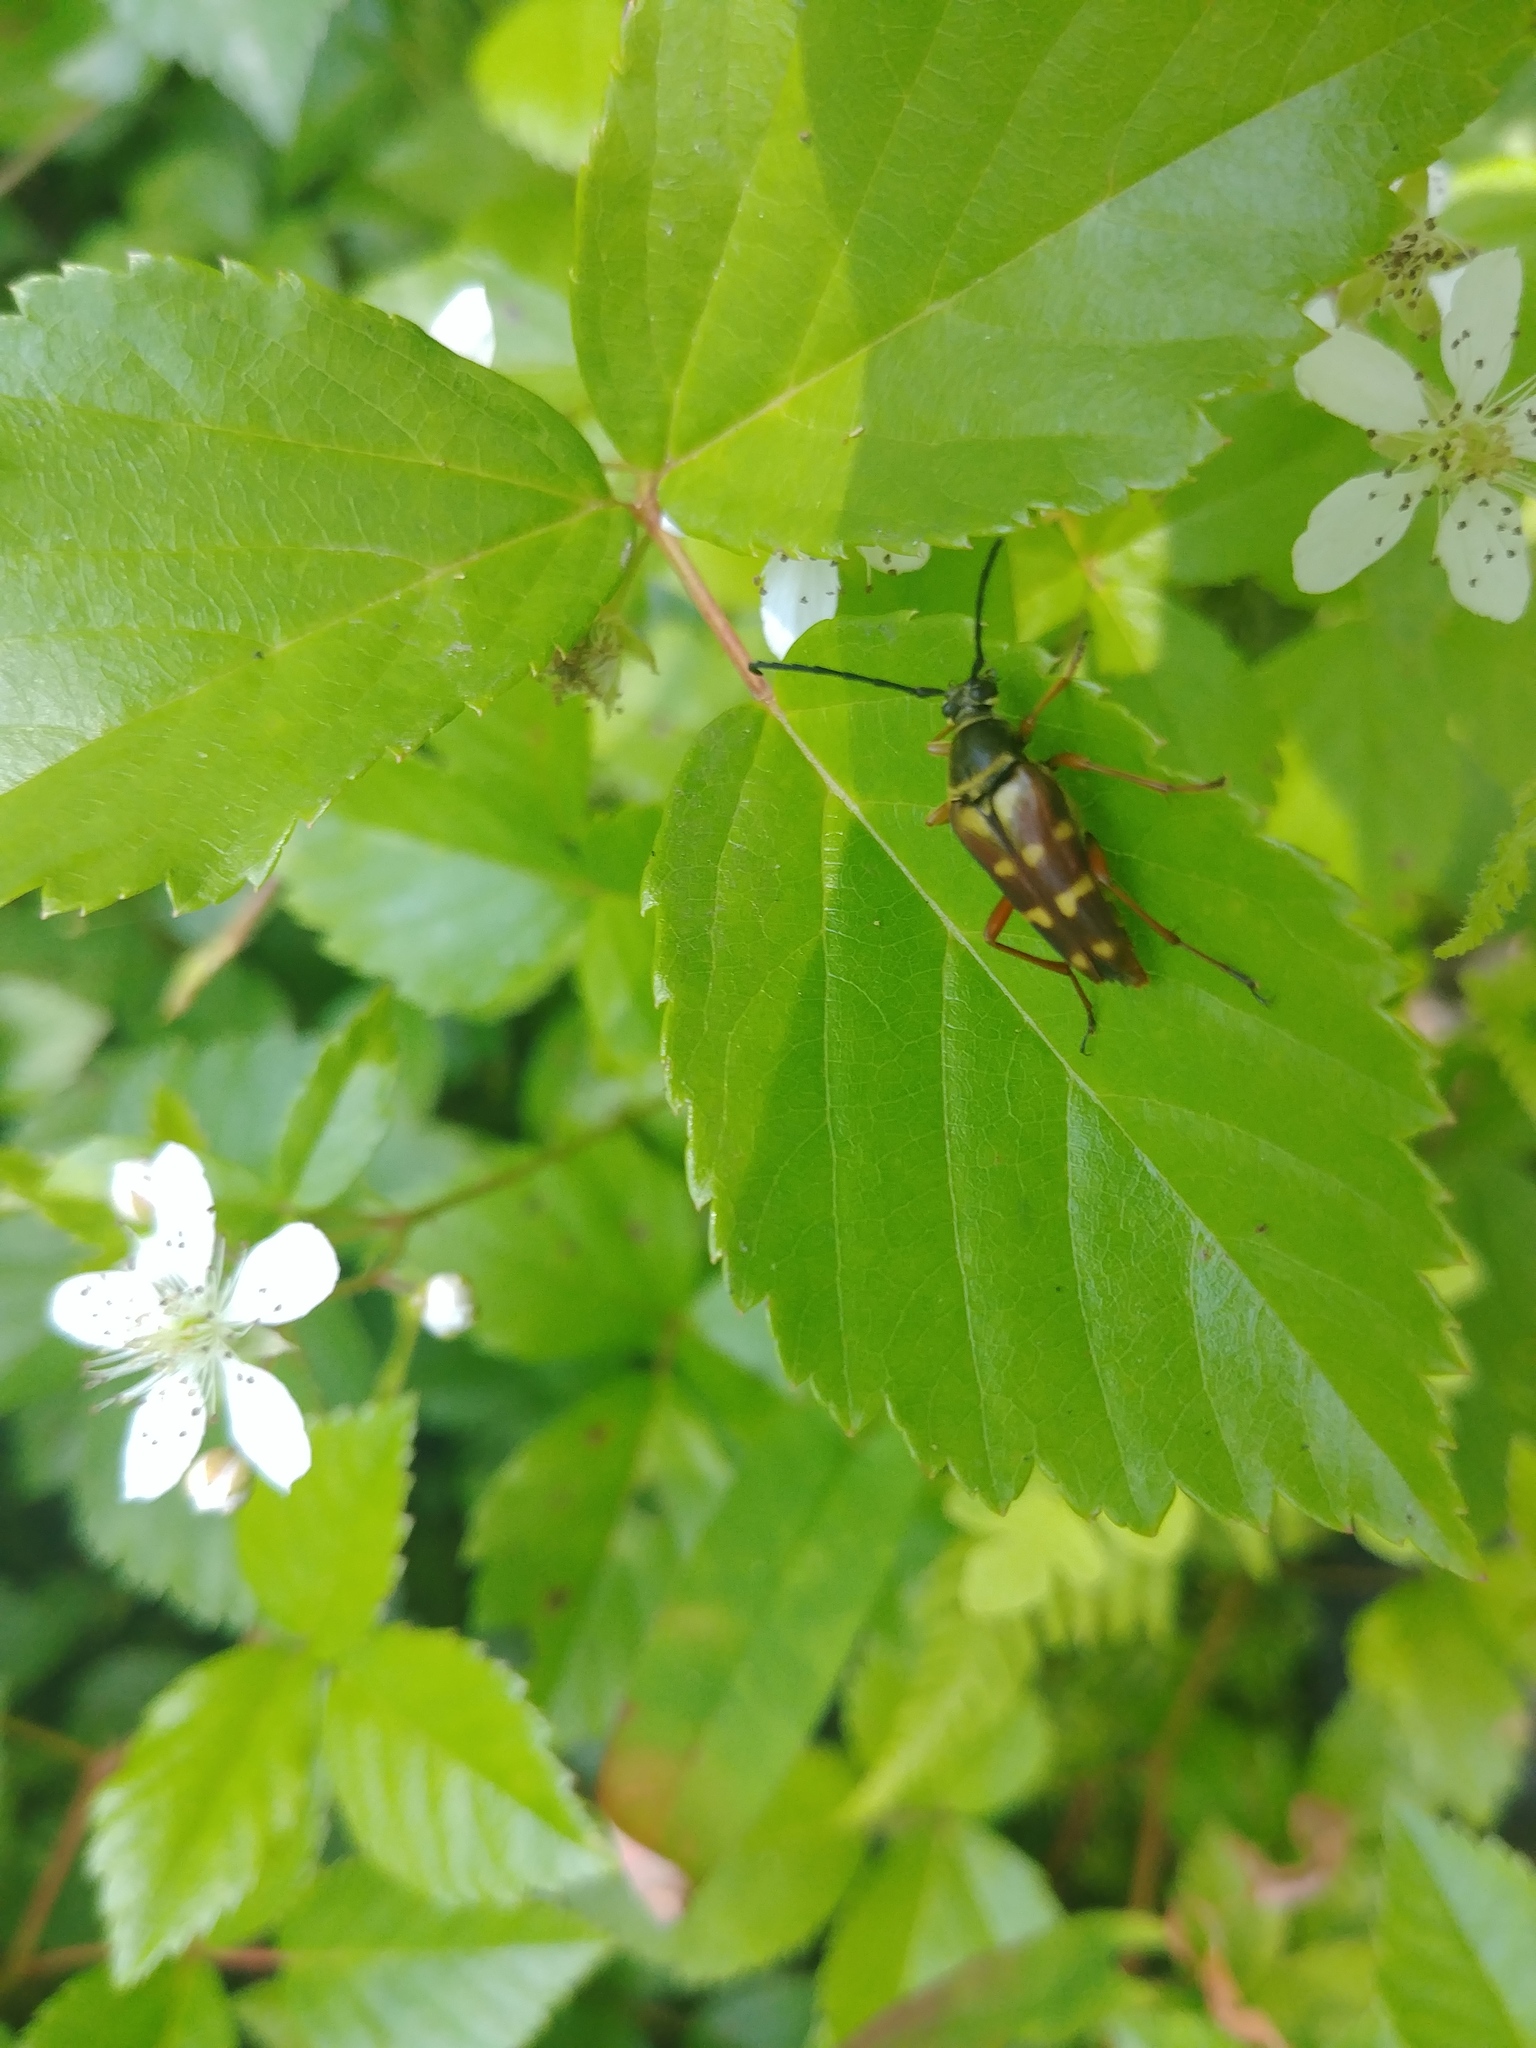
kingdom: Animalia
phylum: Arthropoda
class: Insecta
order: Coleoptera
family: Cerambycidae
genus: Typocerus
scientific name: Typocerus velutinus
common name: Banded longhorn beetle
